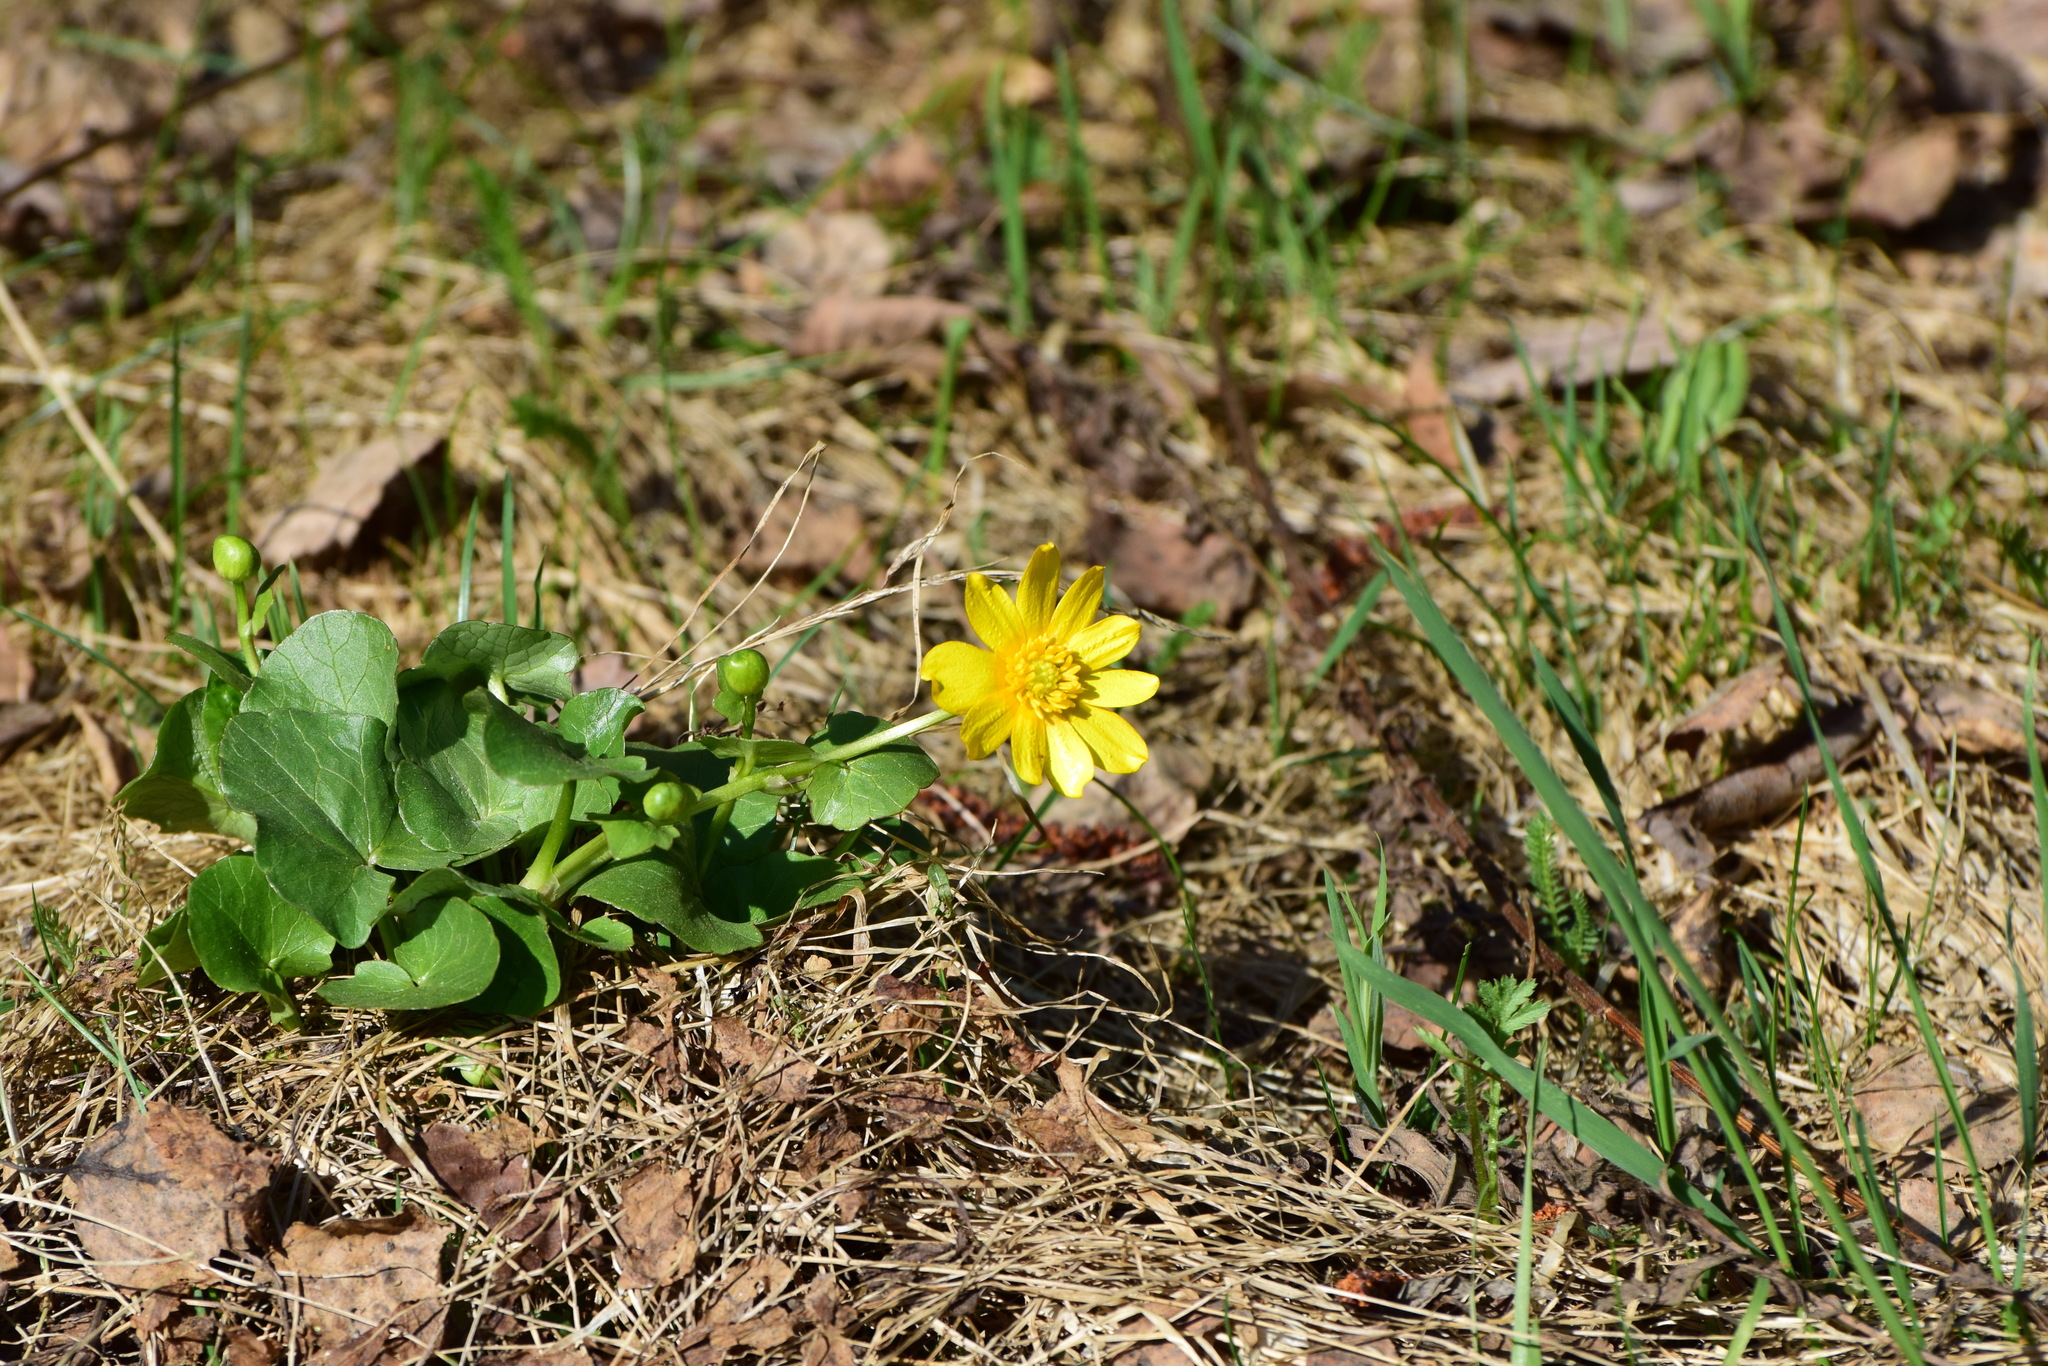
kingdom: Plantae
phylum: Tracheophyta
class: Magnoliopsida
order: Ranunculales
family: Ranunculaceae
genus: Ficaria
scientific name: Ficaria verna
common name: Lesser celandine
